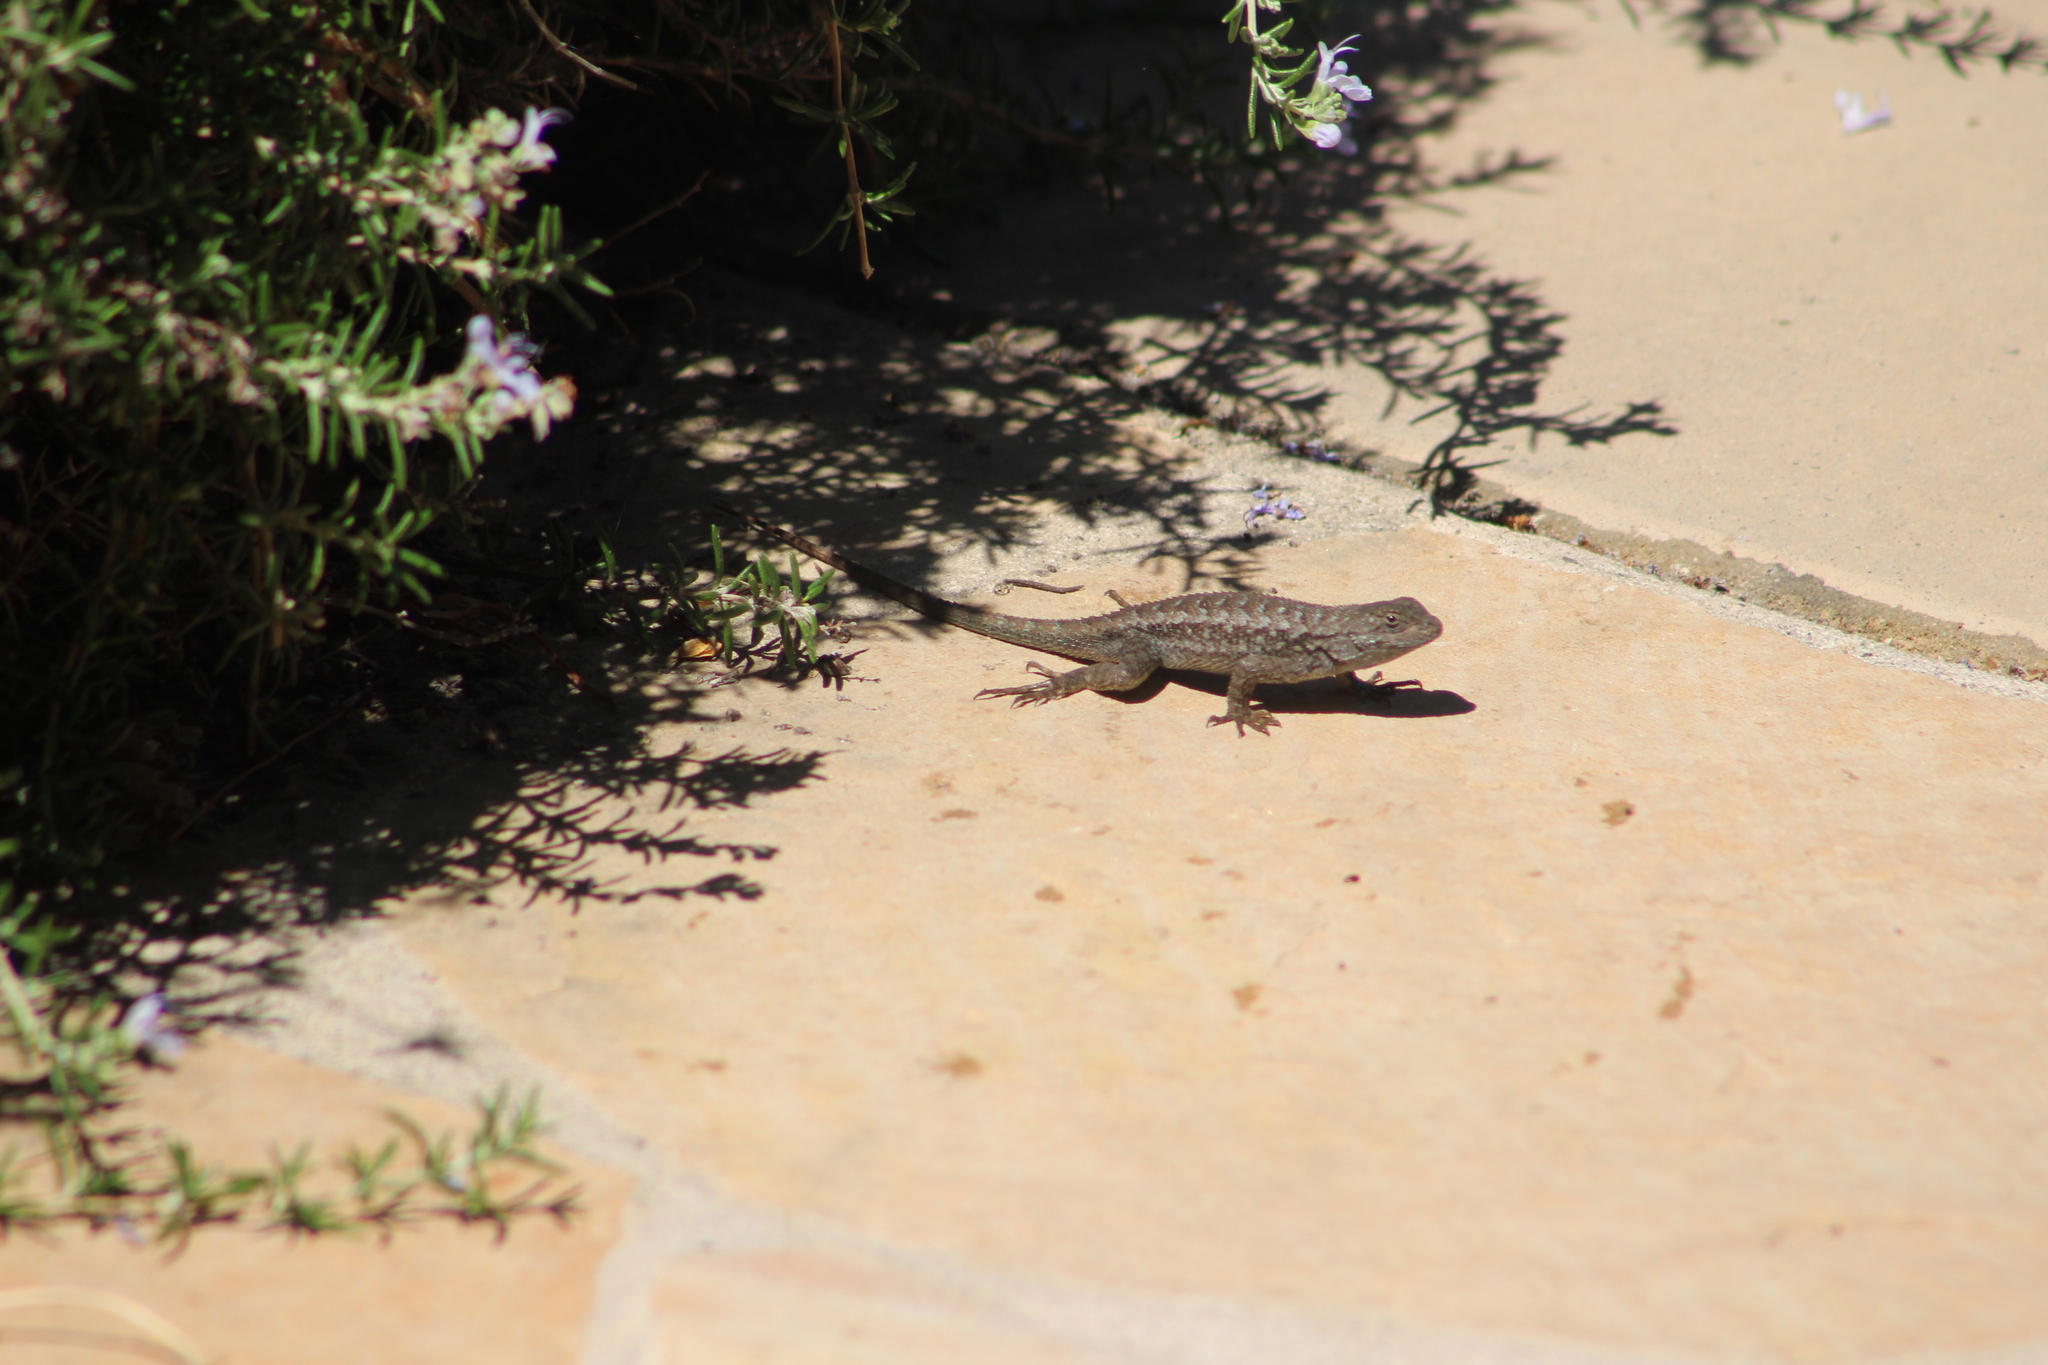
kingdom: Animalia
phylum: Chordata
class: Squamata
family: Phrynosomatidae
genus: Sceloporus
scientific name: Sceloporus occidentalis
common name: Western fence lizard
